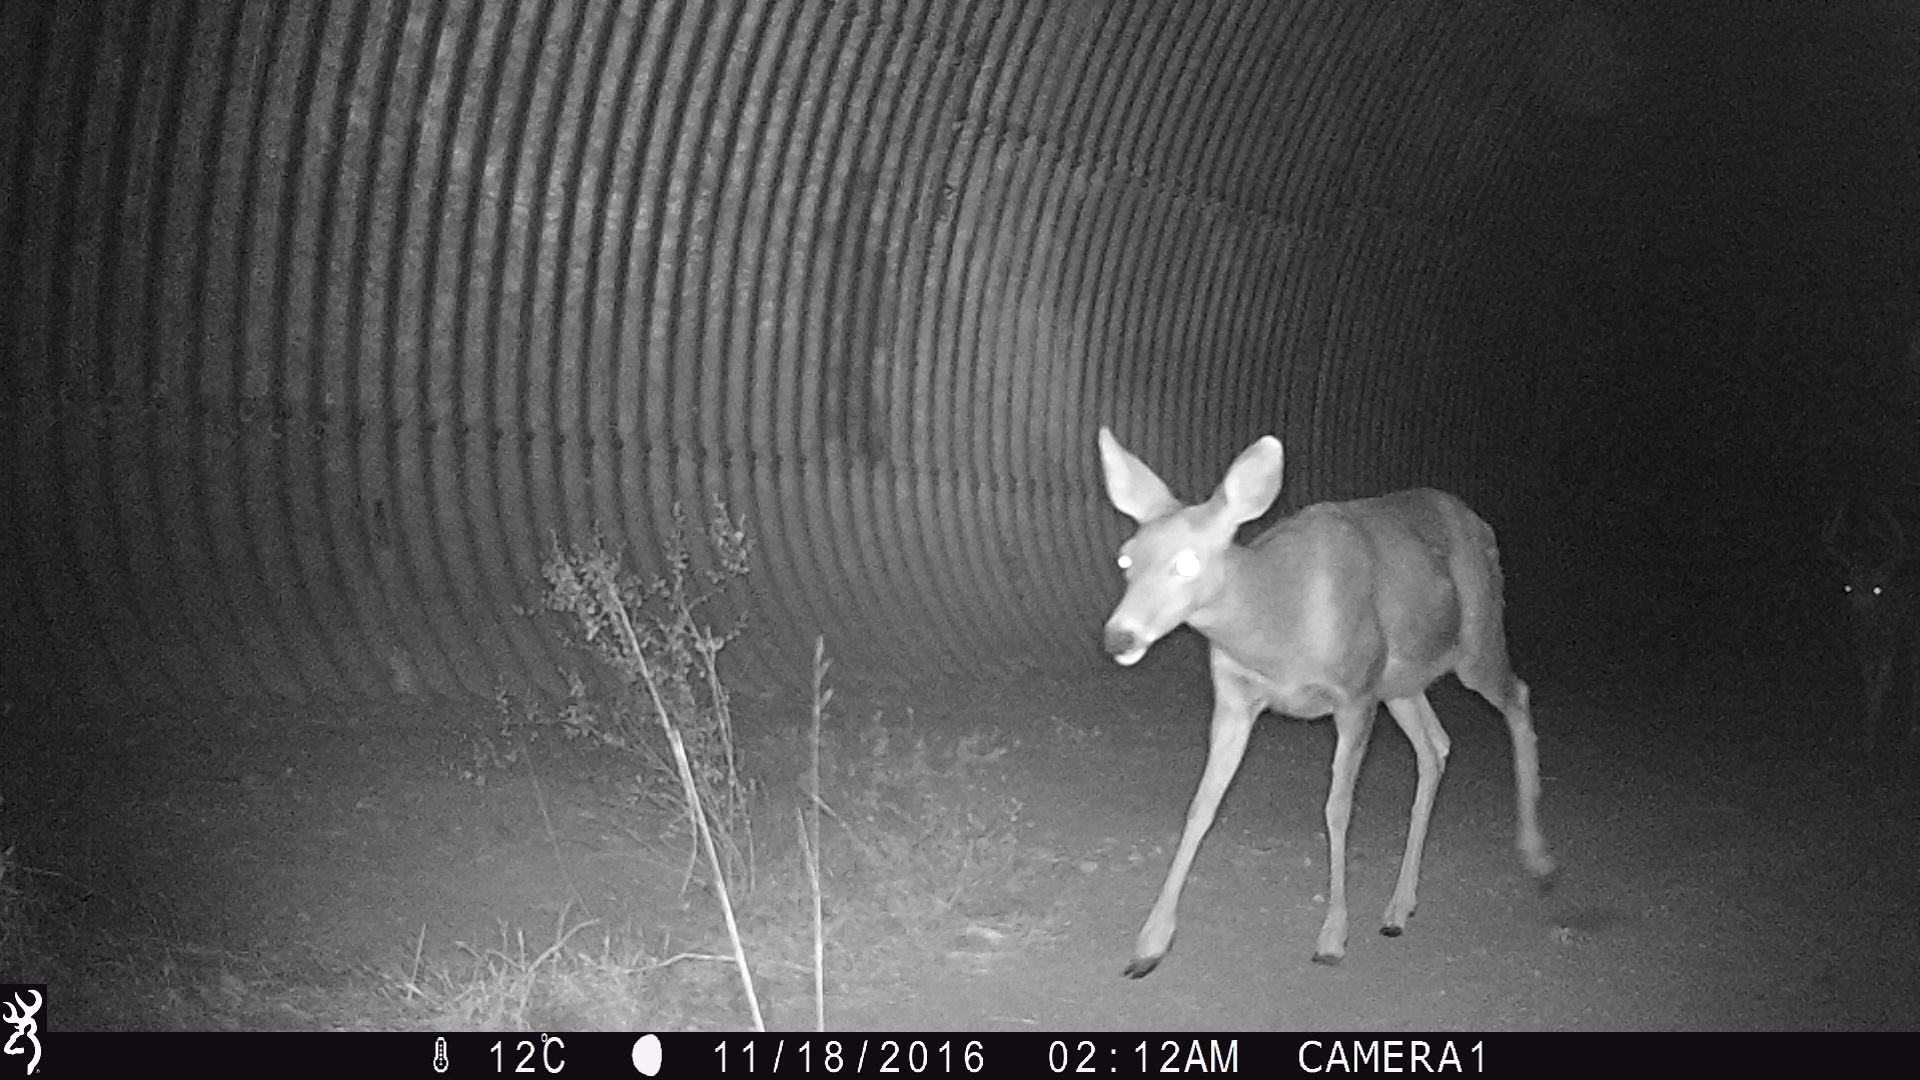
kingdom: Animalia
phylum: Chordata
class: Mammalia
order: Artiodactyla
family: Cervidae
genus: Odocoileus
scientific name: Odocoileus hemionus
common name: Mule deer
